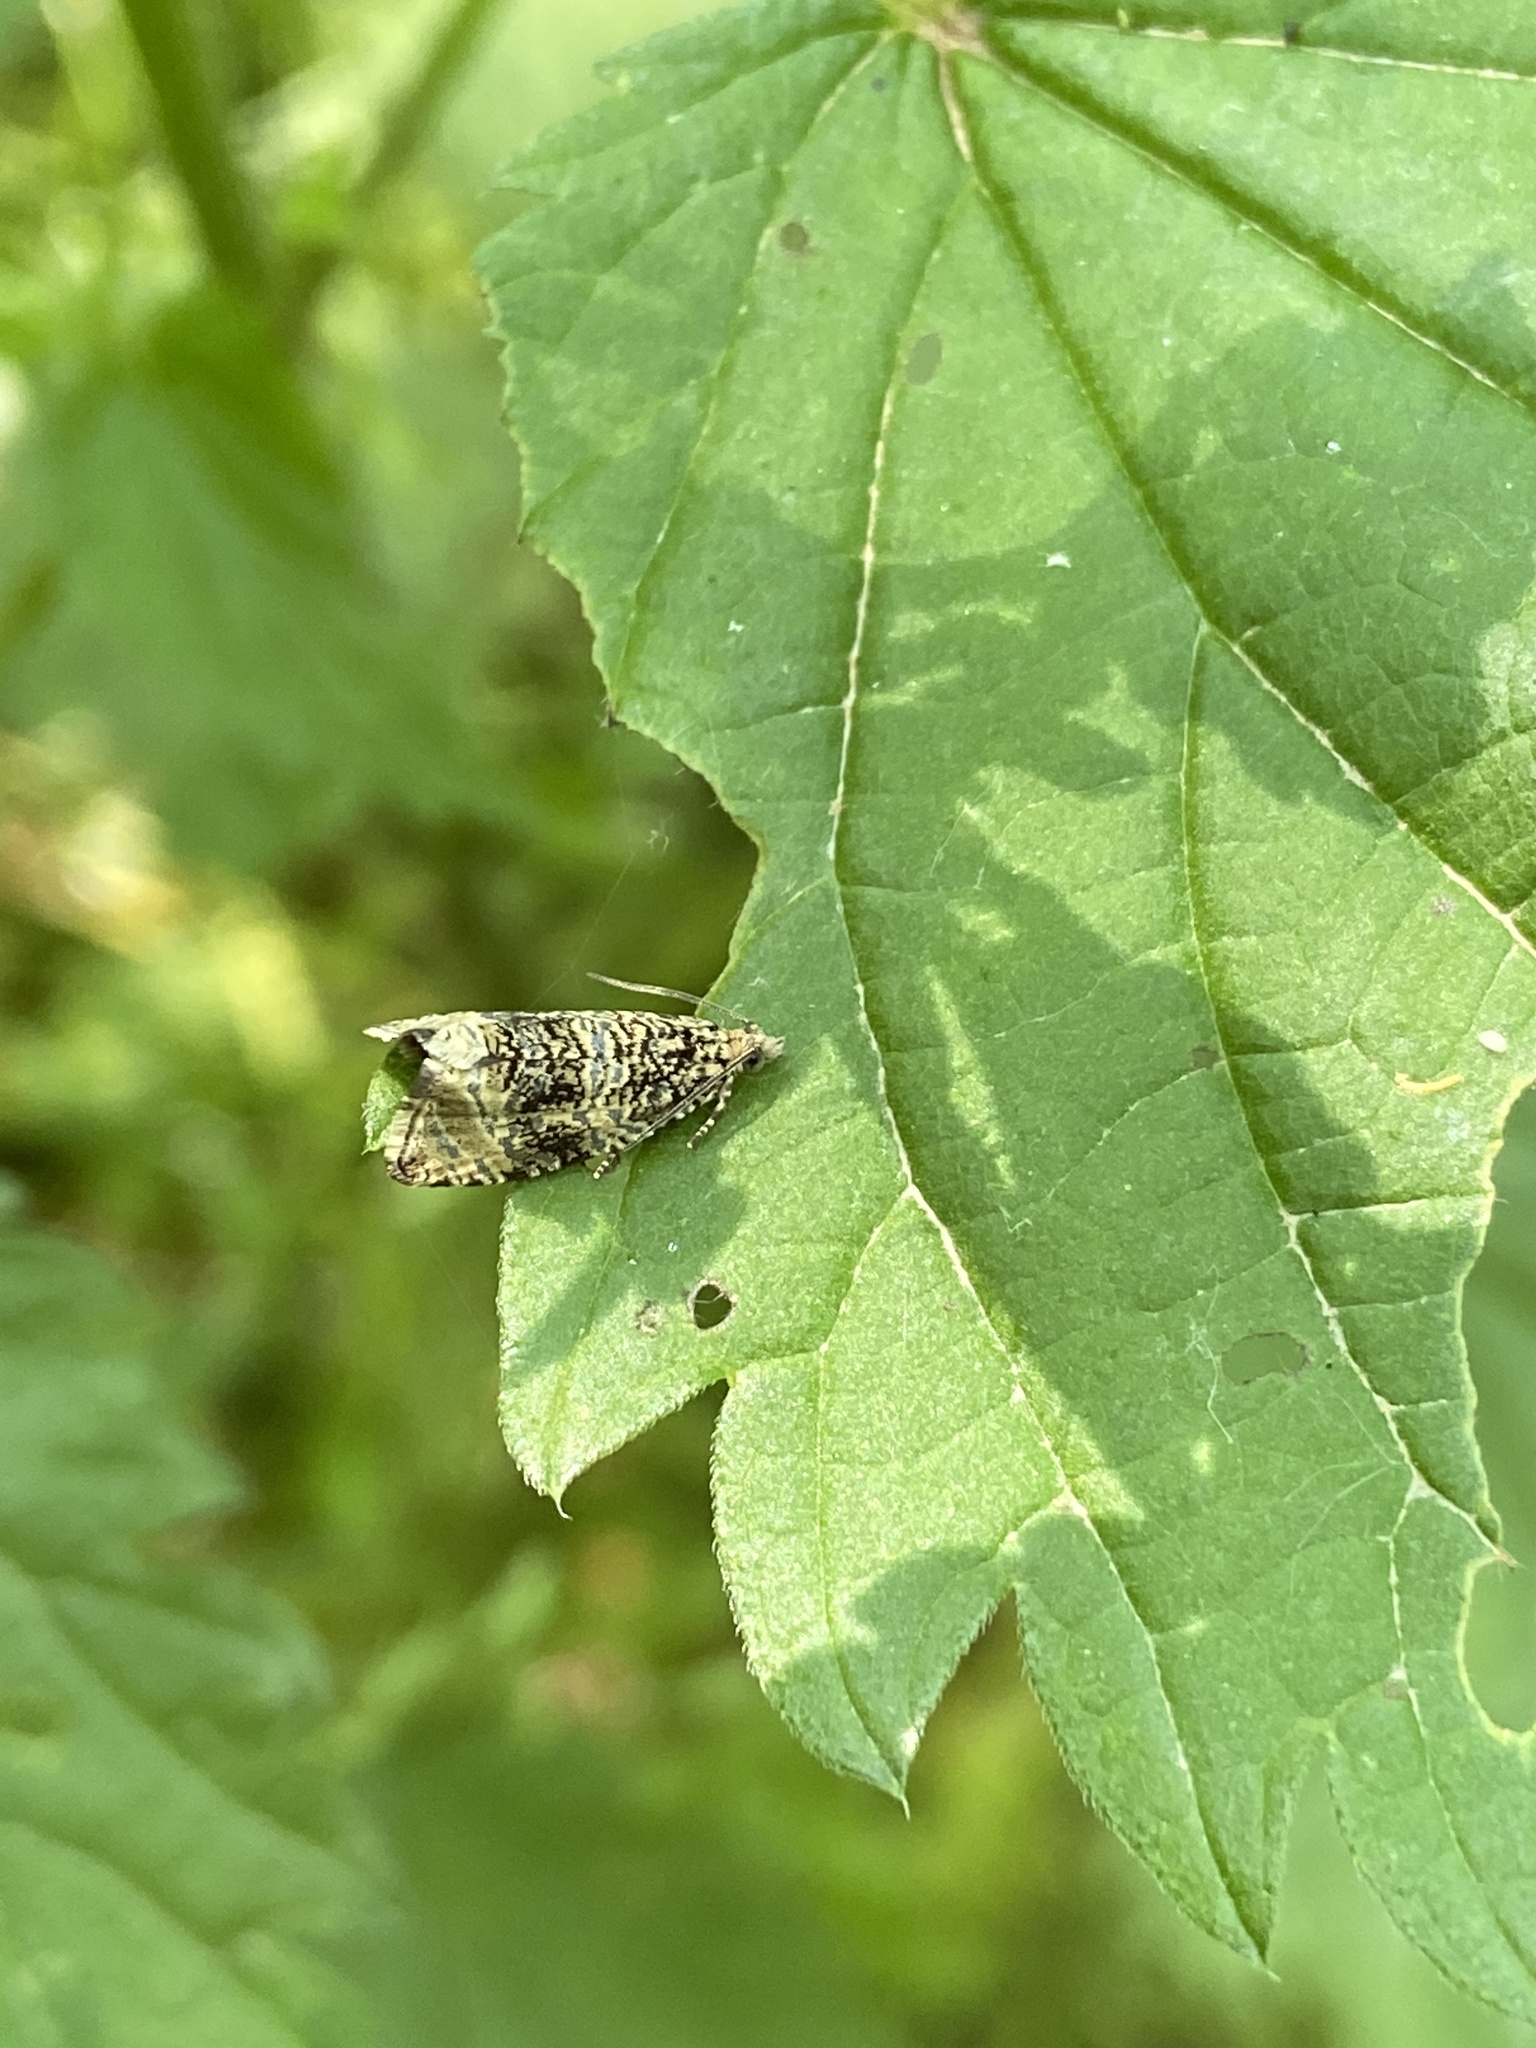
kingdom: Animalia
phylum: Arthropoda
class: Insecta
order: Lepidoptera
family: Tortricidae
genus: Syricoris
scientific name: Syricoris lacunana
